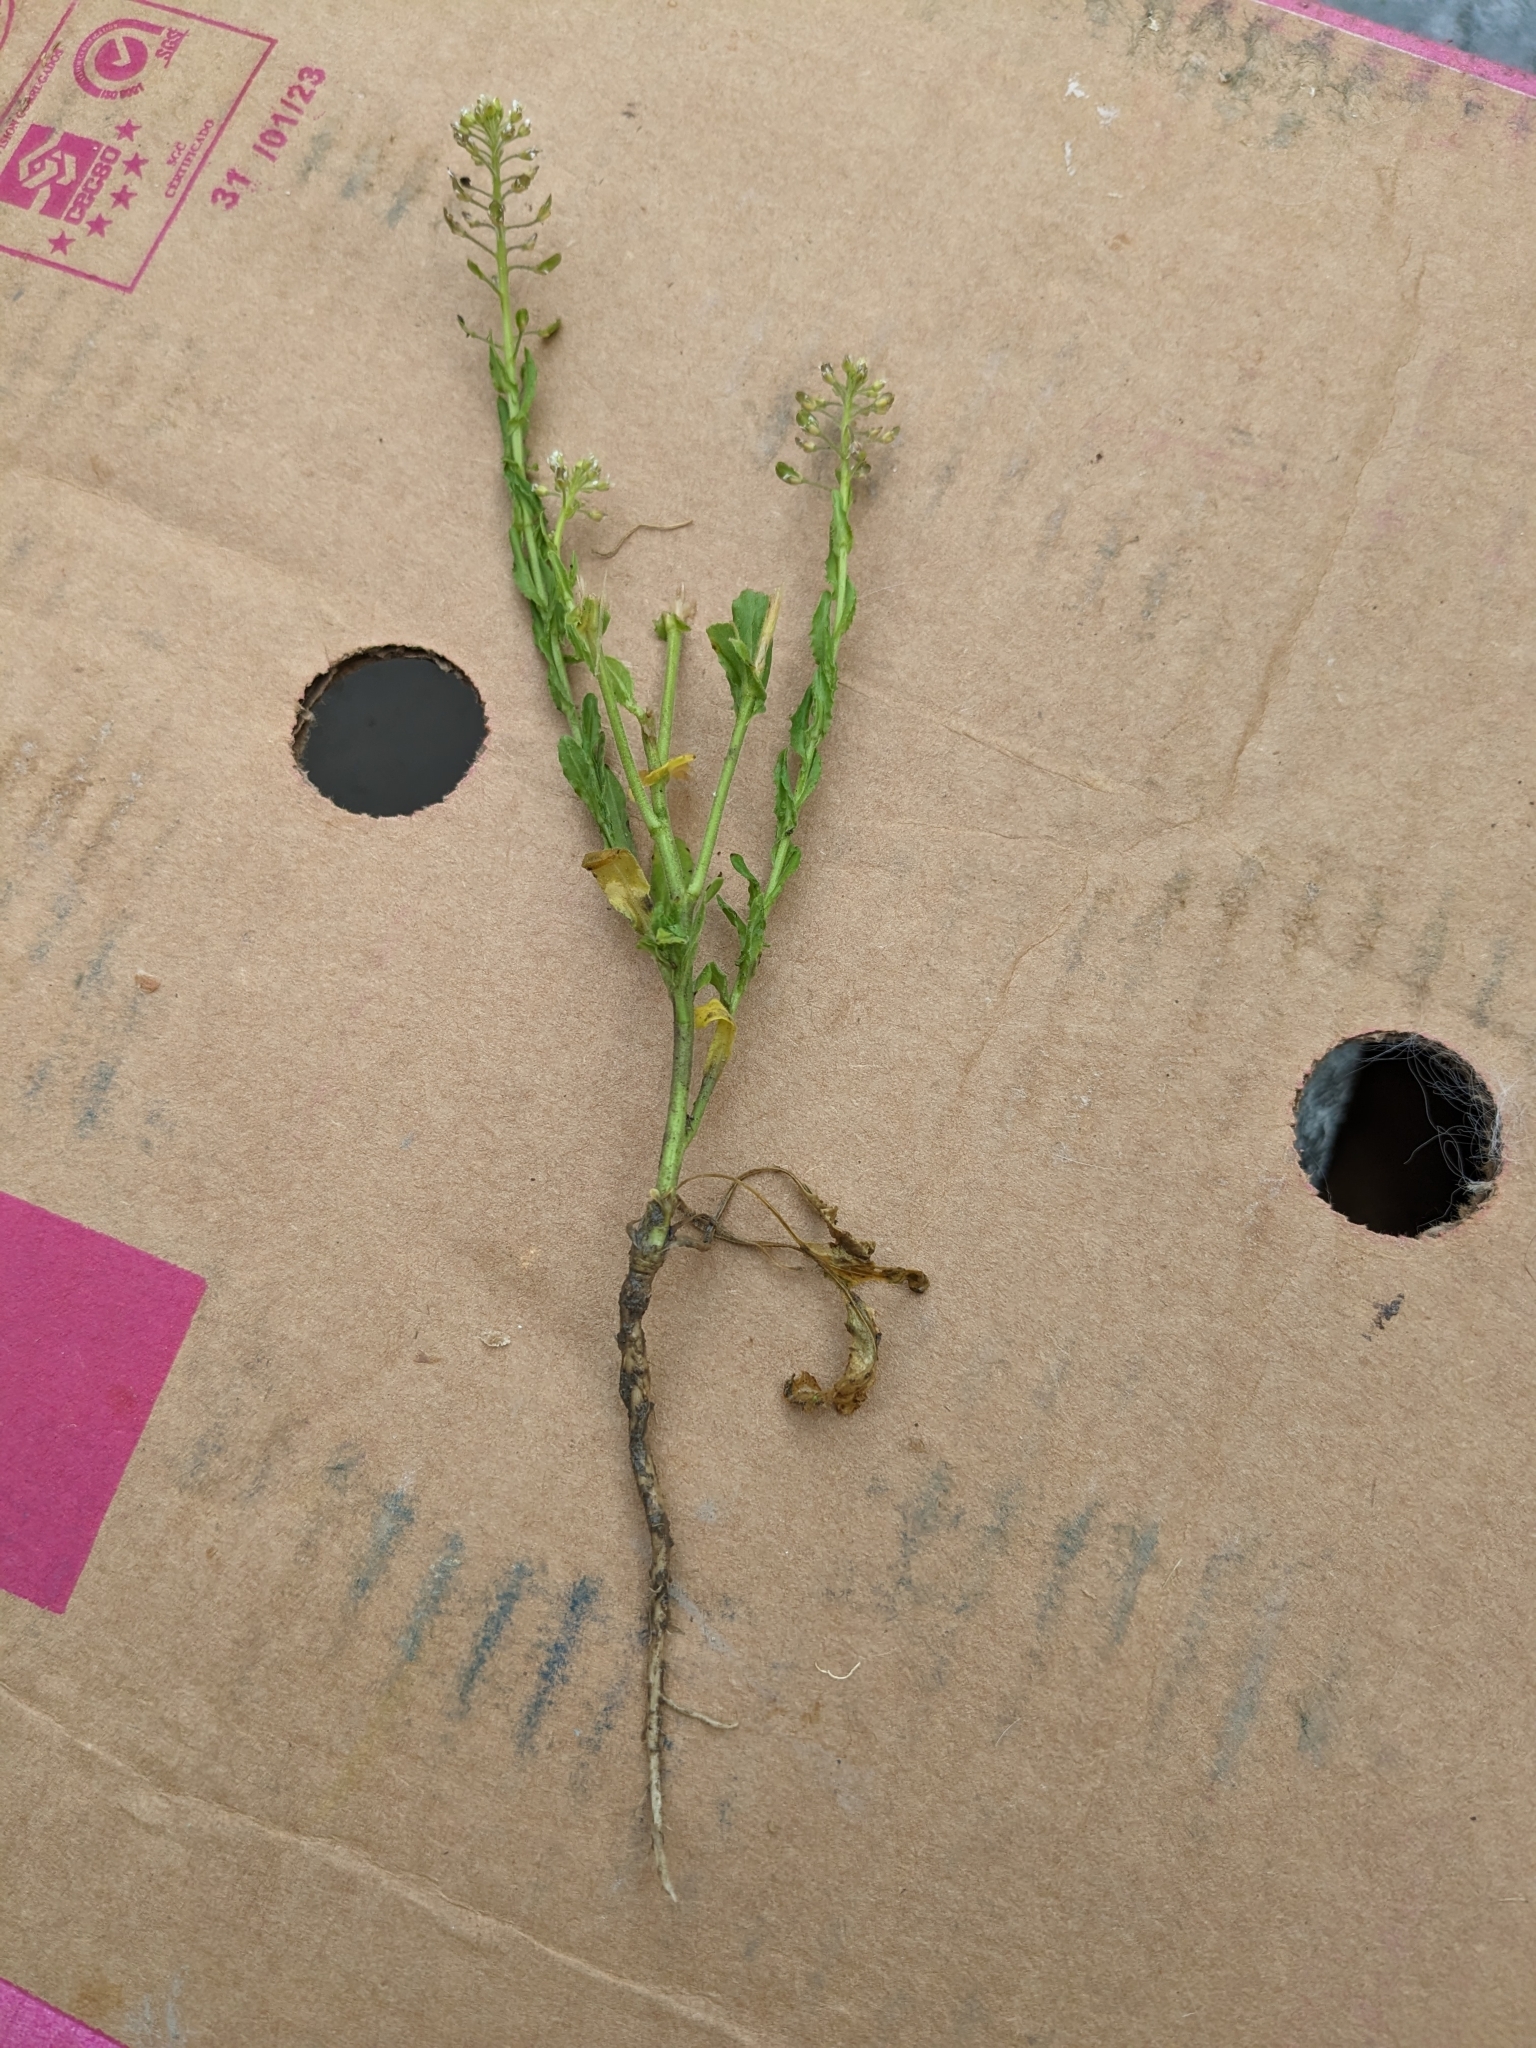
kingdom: Plantae
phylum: Tracheophyta
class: Magnoliopsida
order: Brassicales
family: Brassicaceae
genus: Lepidium
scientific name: Lepidium campestre
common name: Field pepperwort
